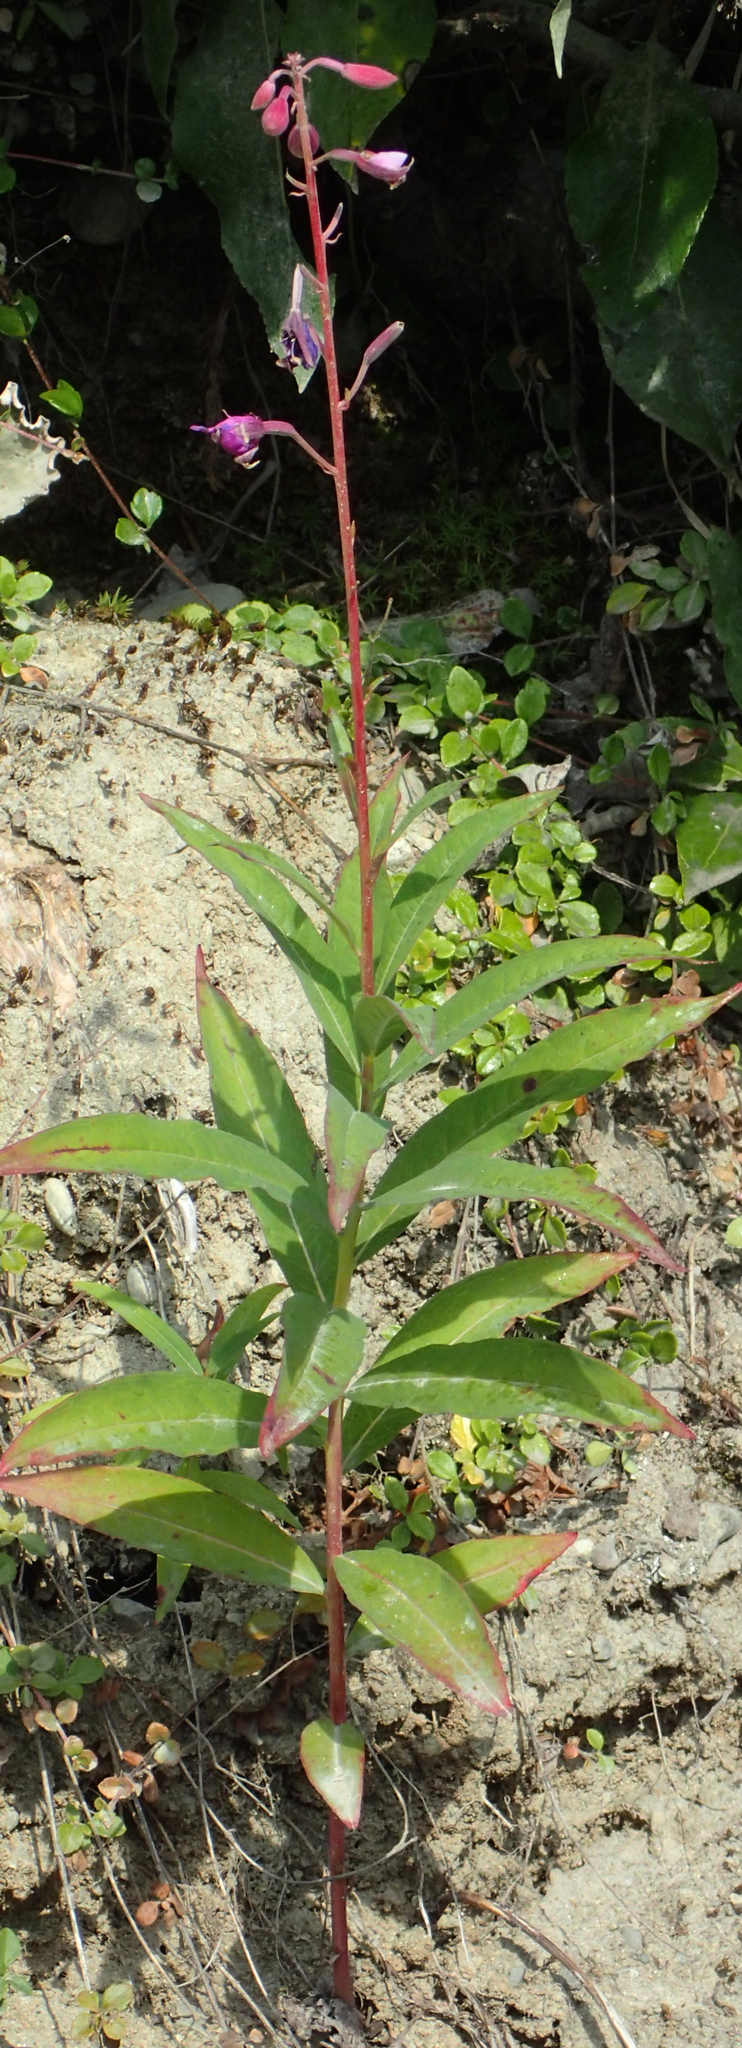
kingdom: Plantae
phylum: Tracheophyta
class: Magnoliopsida
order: Myrtales
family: Onagraceae
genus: Chamaenerion
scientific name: Chamaenerion angustifolium
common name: Fireweed
